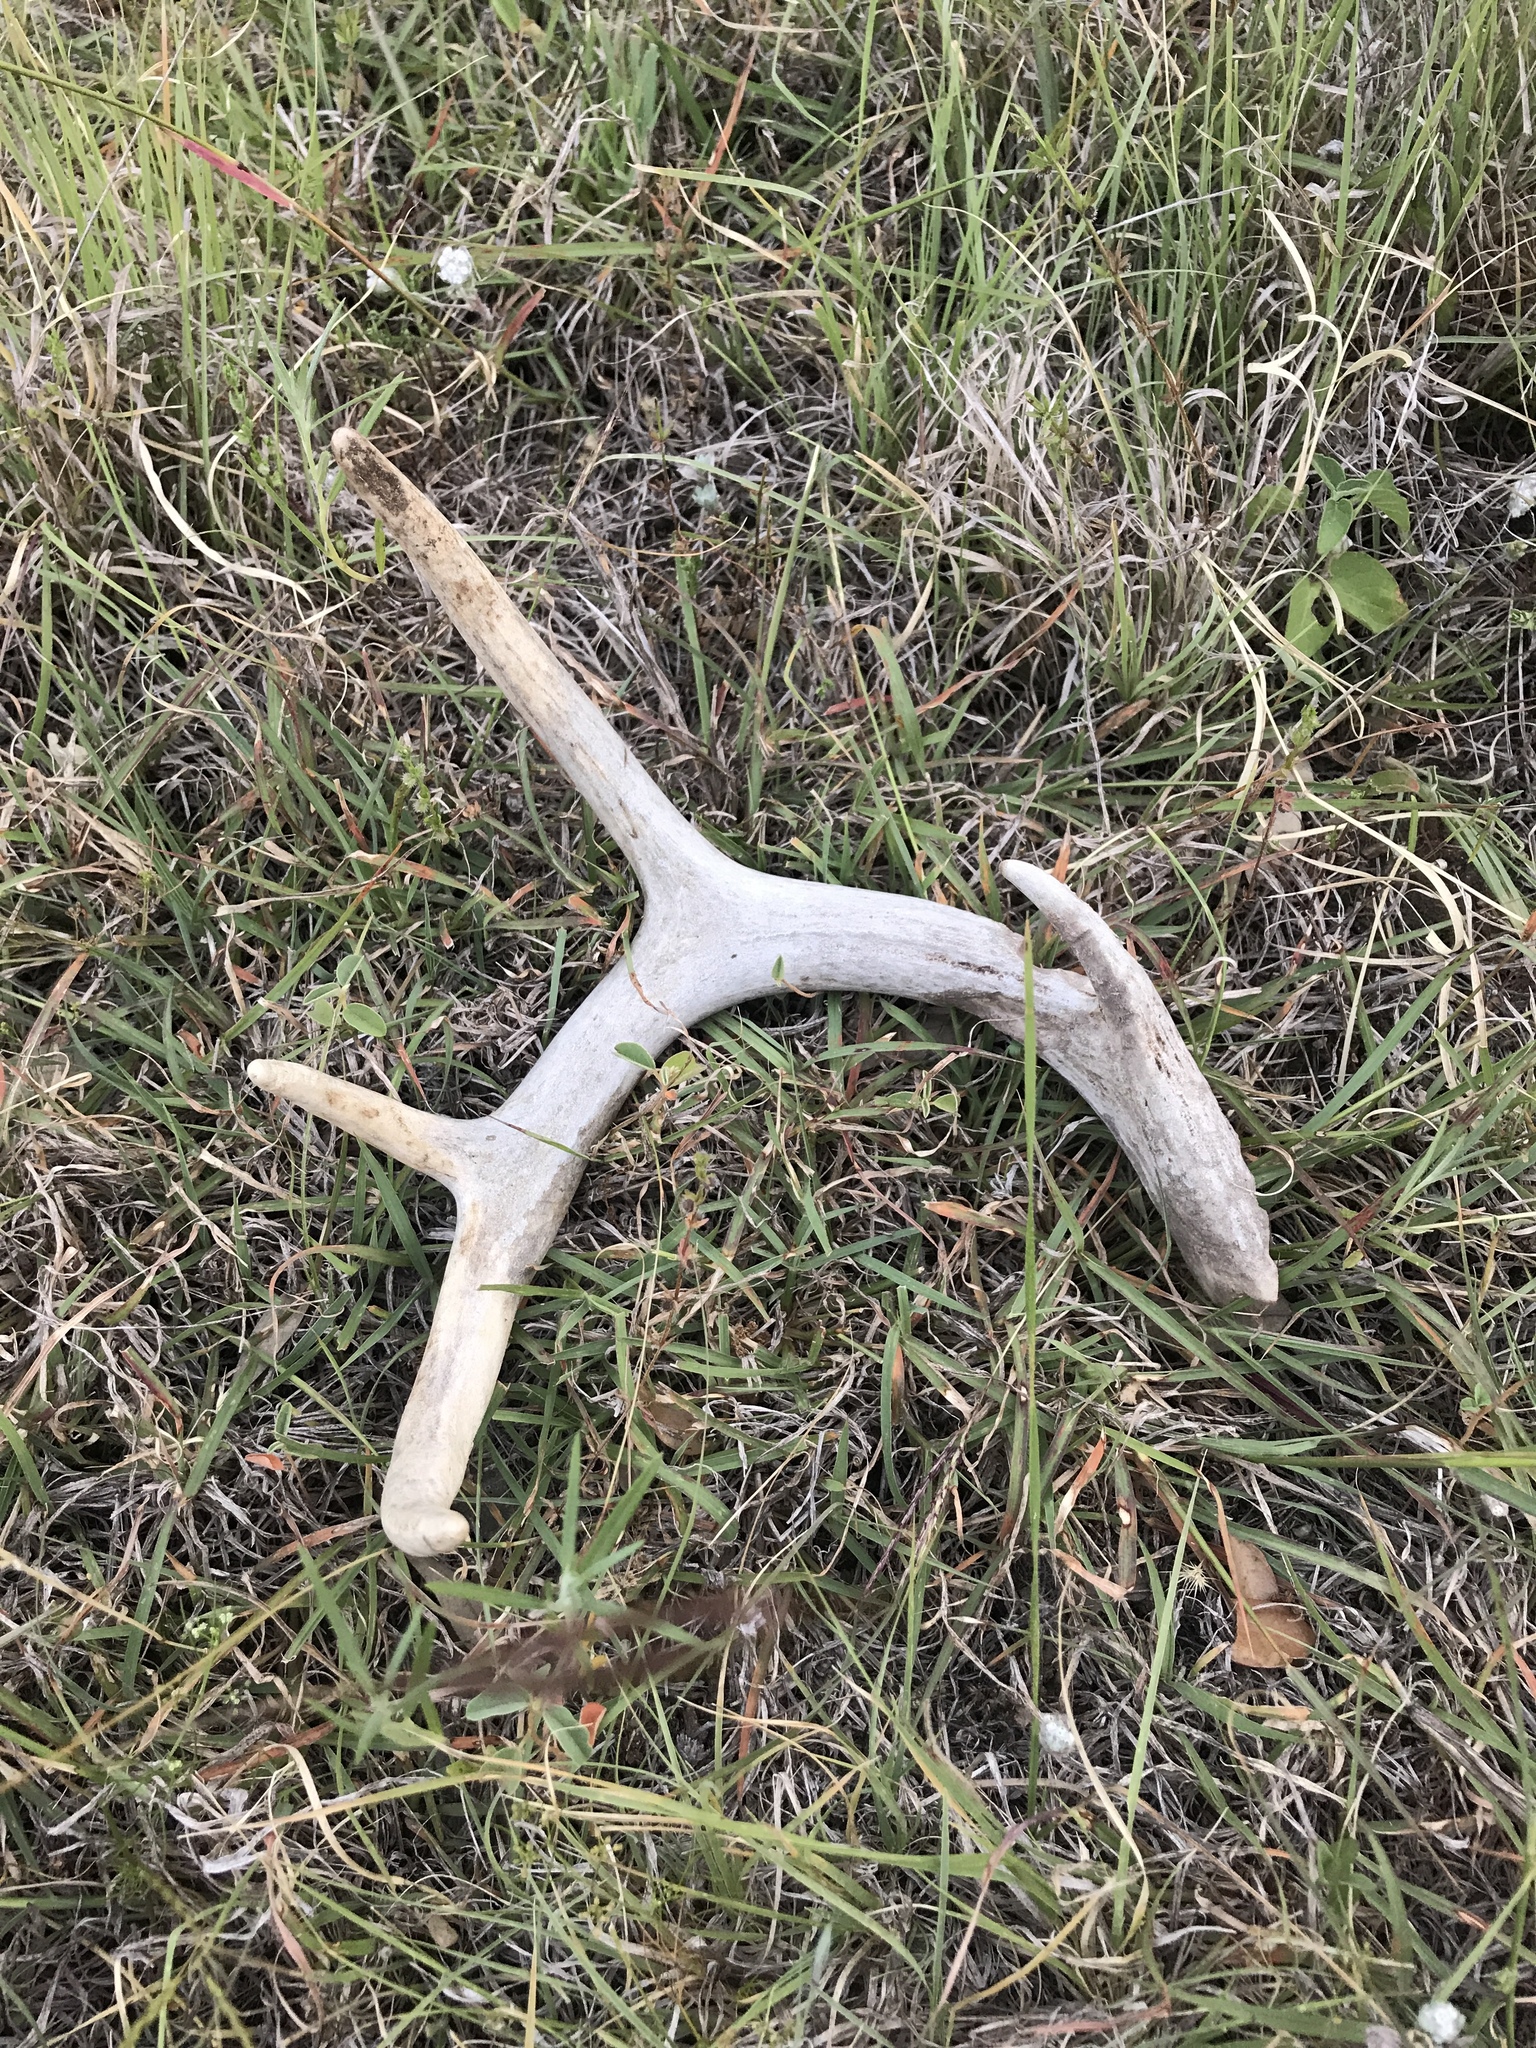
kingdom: Animalia
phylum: Chordata
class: Mammalia
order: Artiodactyla
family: Cervidae
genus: Odocoileus
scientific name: Odocoileus virginianus
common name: White-tailed deer
